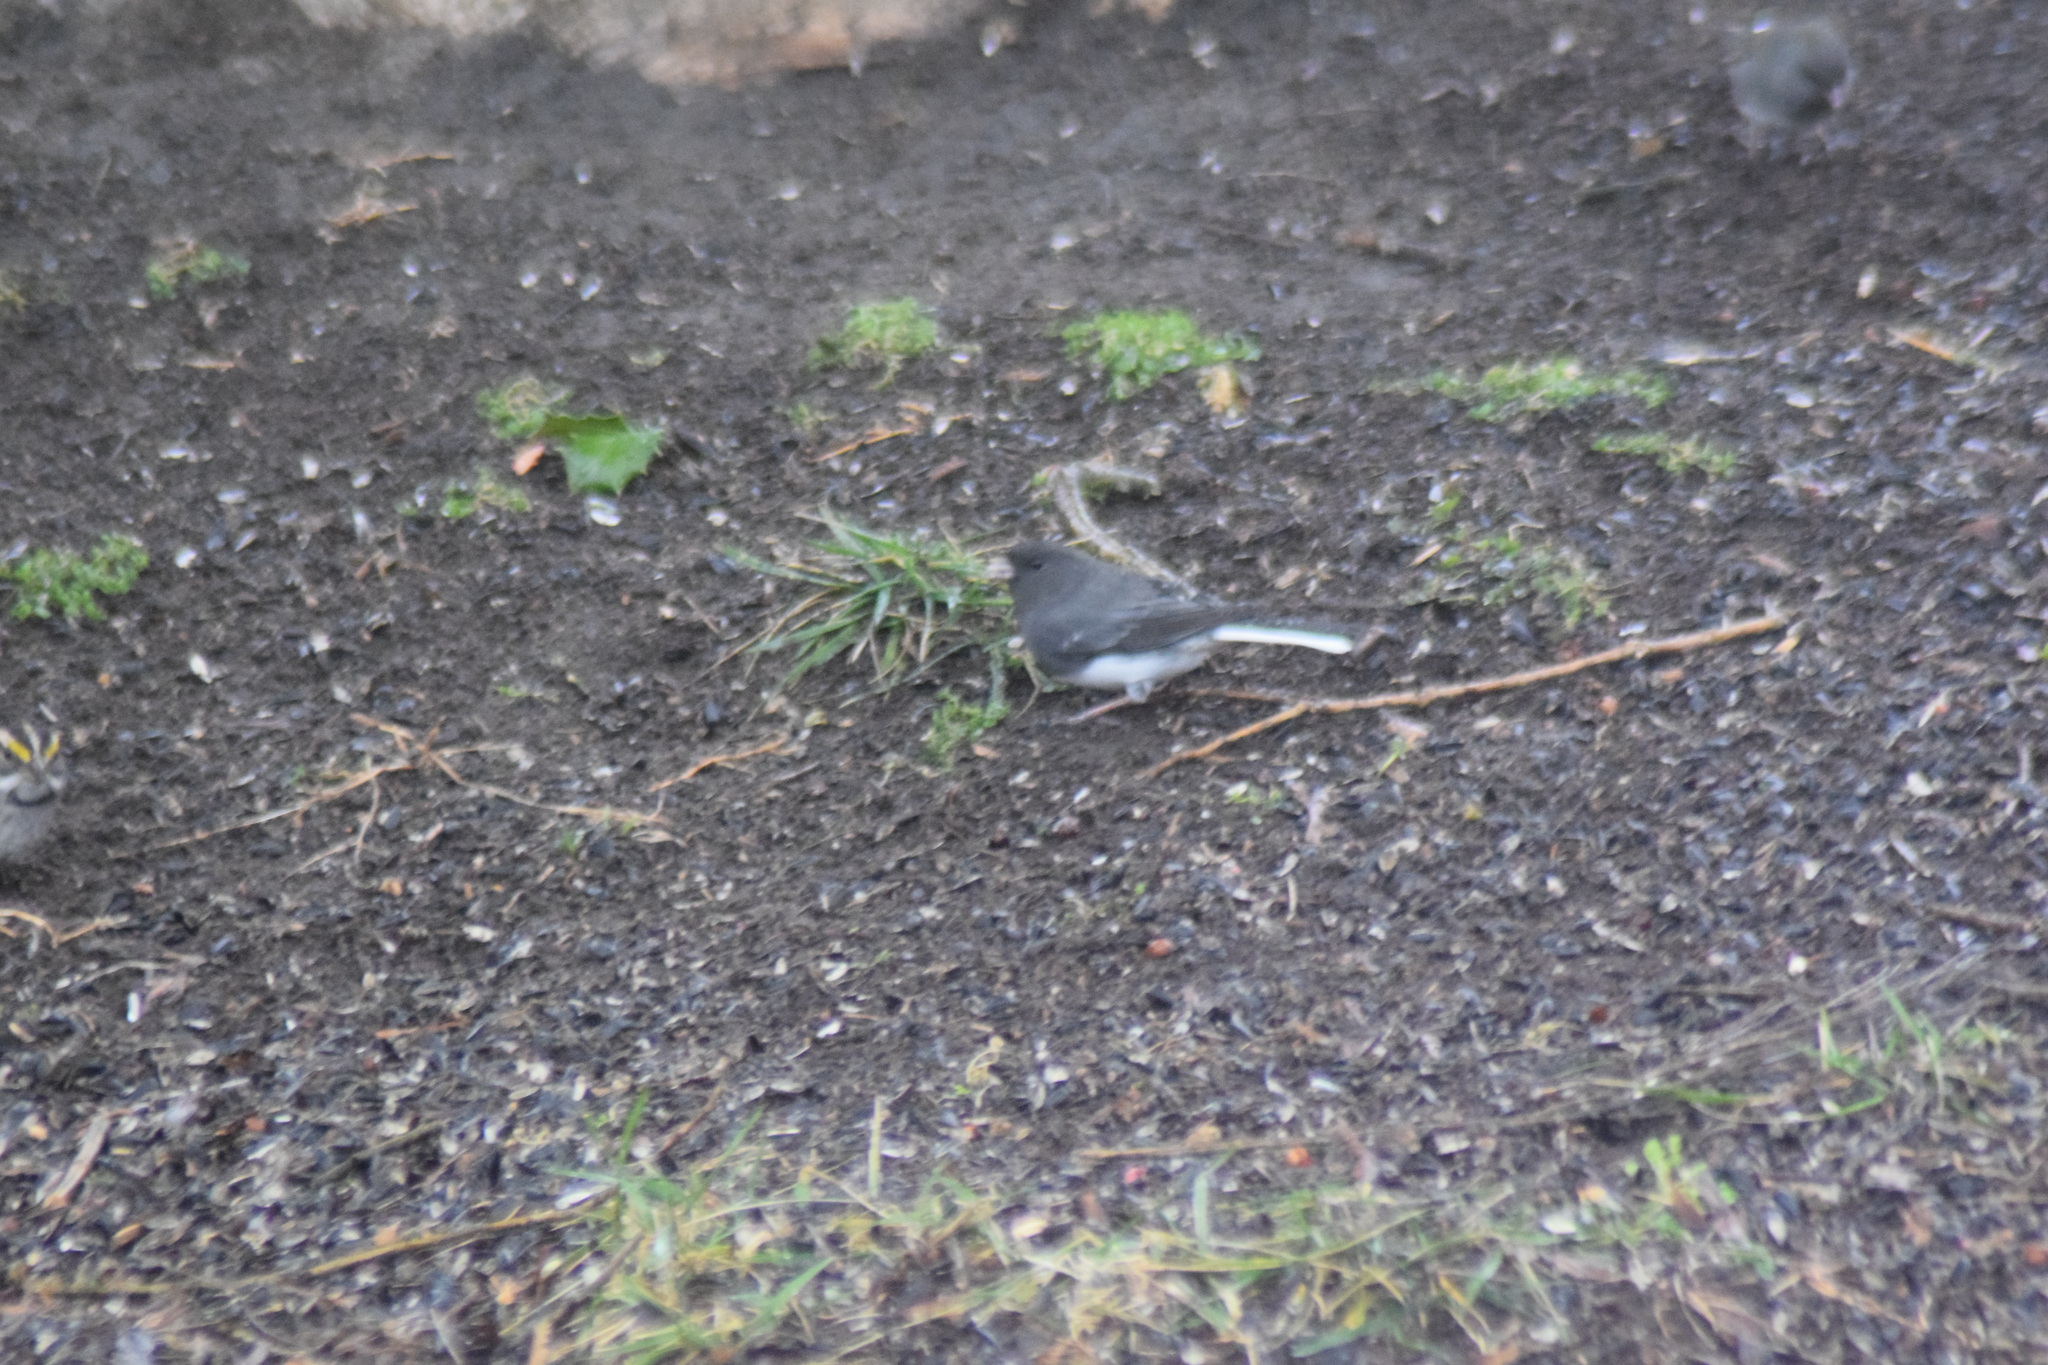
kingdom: Animalia
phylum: Chordata
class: Aves
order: Passeriformes
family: Passerellidae
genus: Junco
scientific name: Junco hyemalis
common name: Dark-eyed junco
